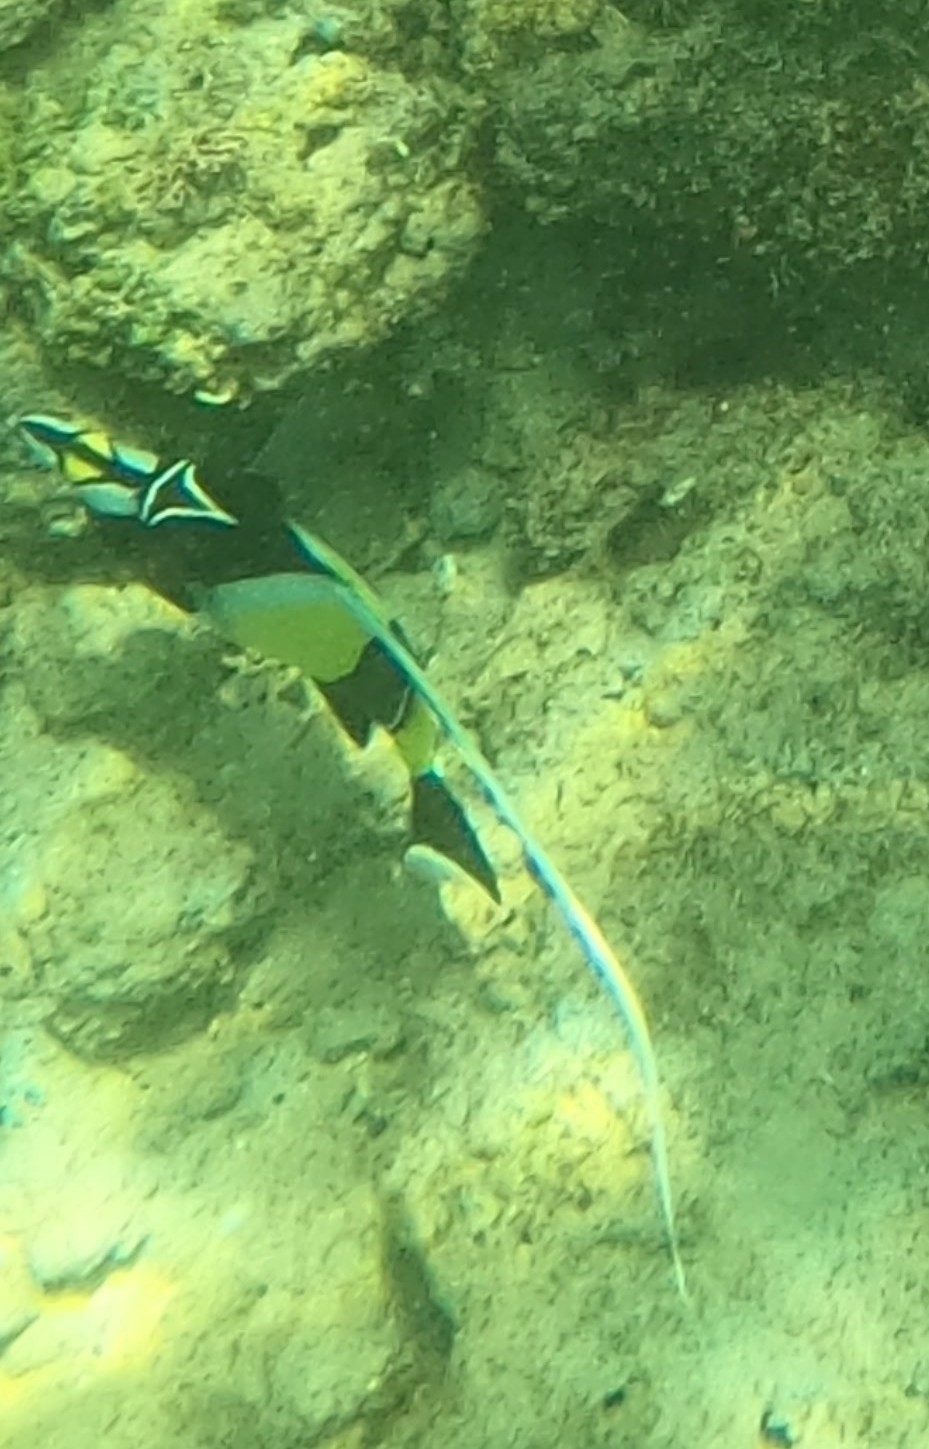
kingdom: Animalia
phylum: Chordata
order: Perciformes
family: Zanclidae
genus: Zanclus
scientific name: Zanclus cornutus
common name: Moorish idol
